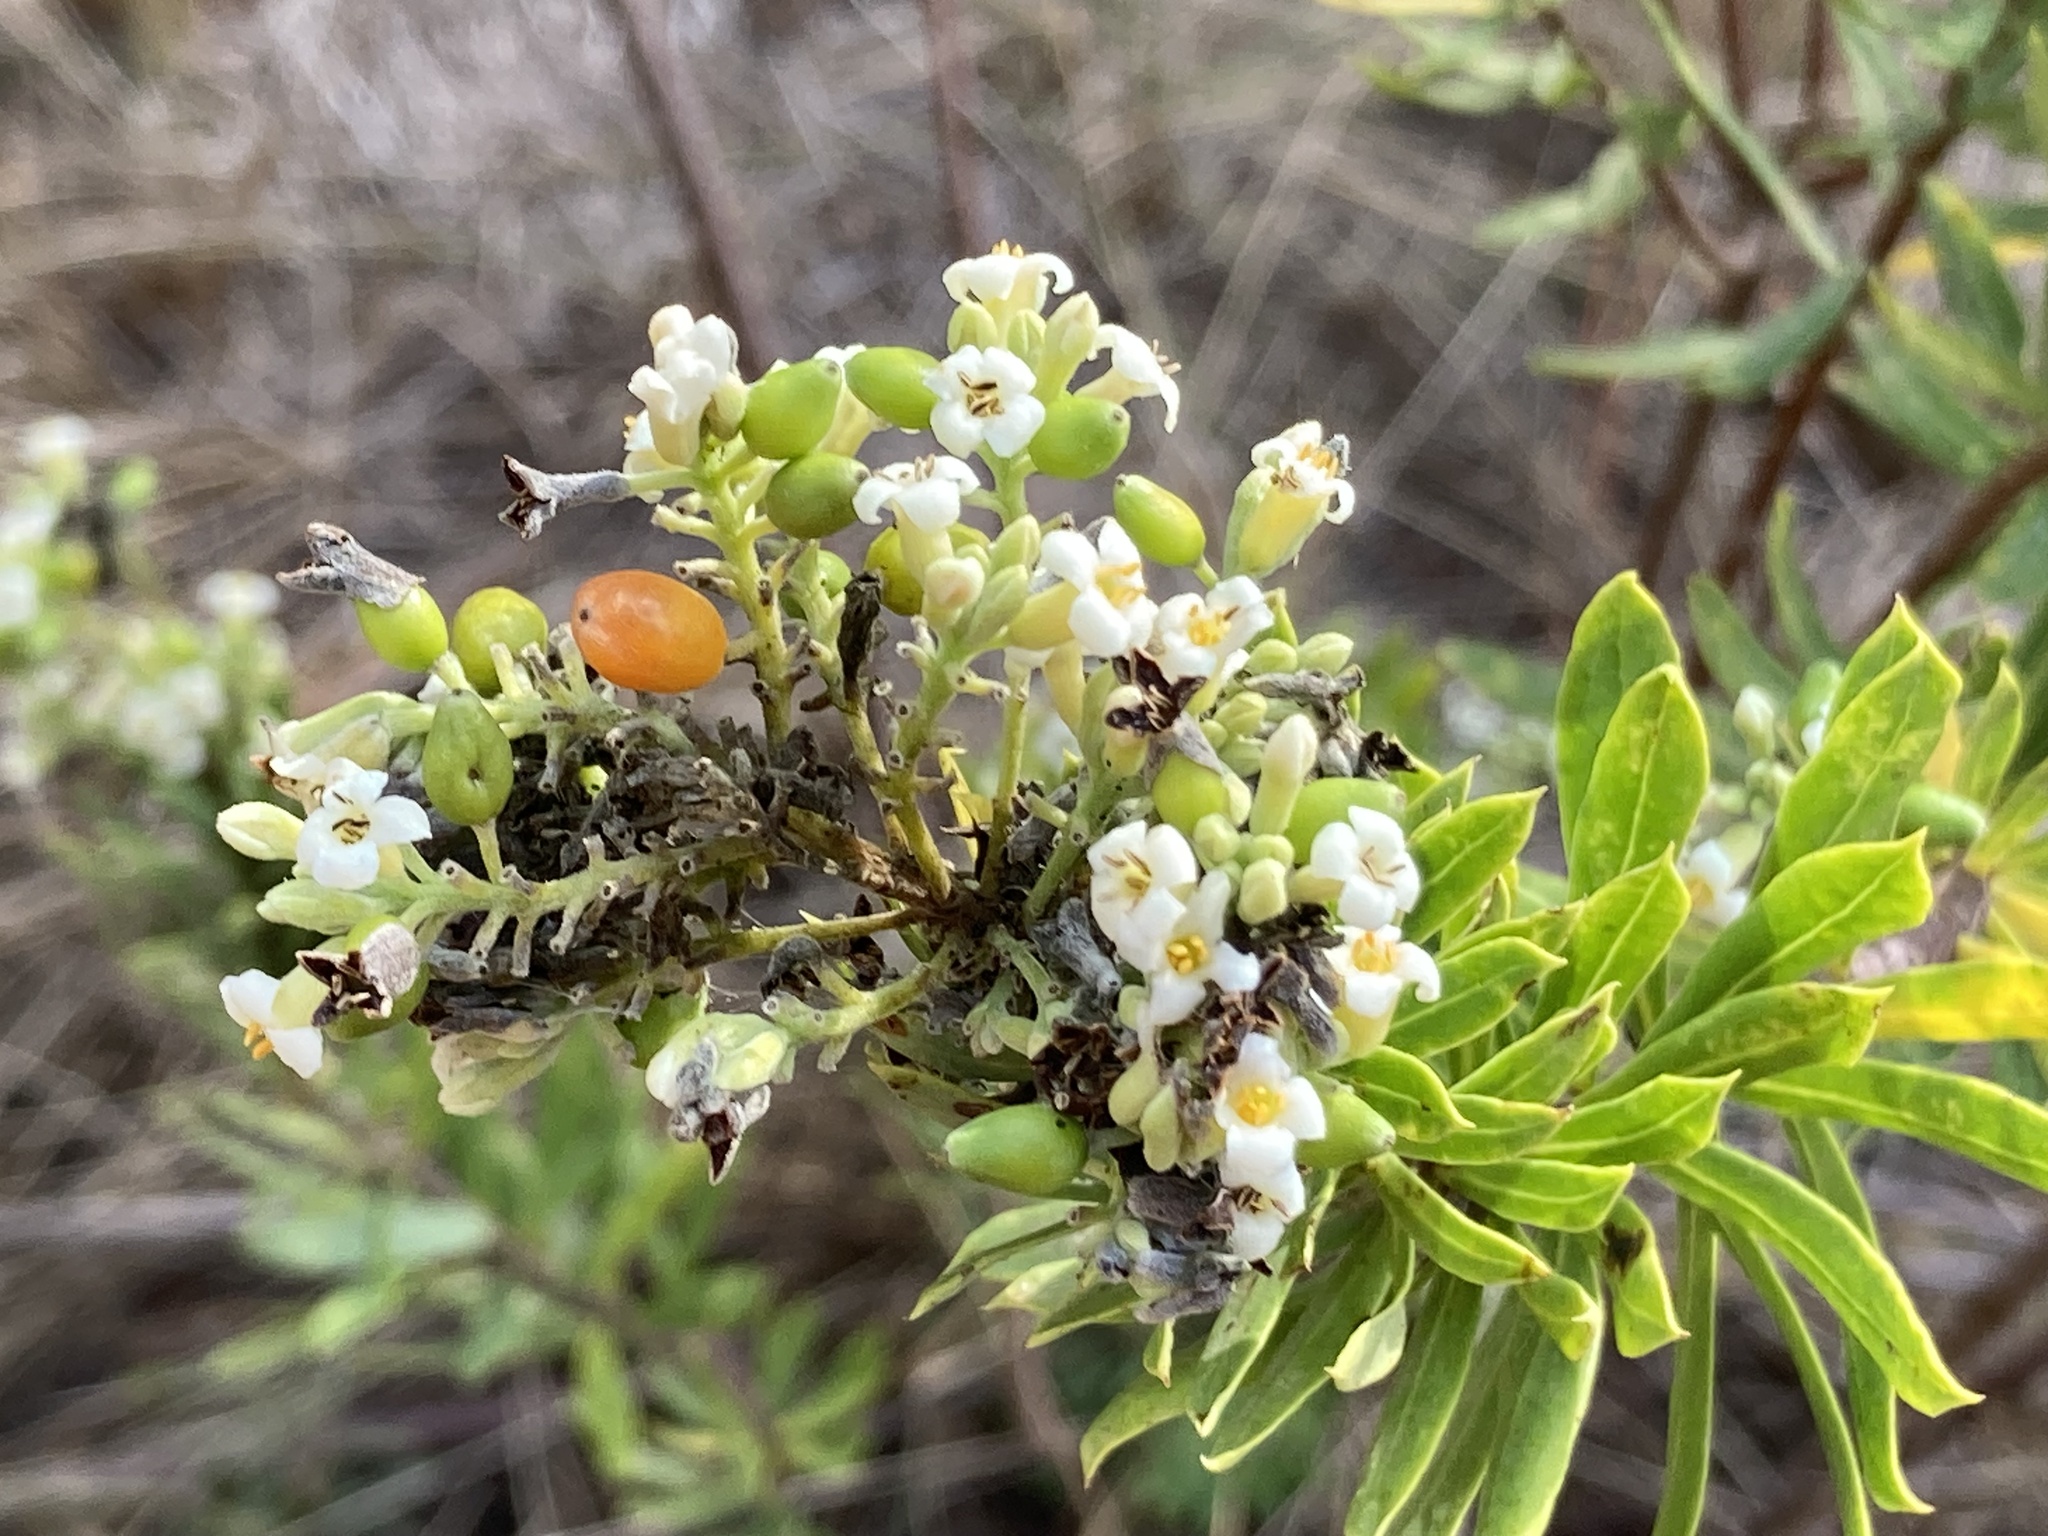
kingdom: Plantae
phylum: Tracheophyta
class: Magnoliopsida
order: Malvales
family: Thymelaeaceae
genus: Daphne
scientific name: Daphne gnidium
